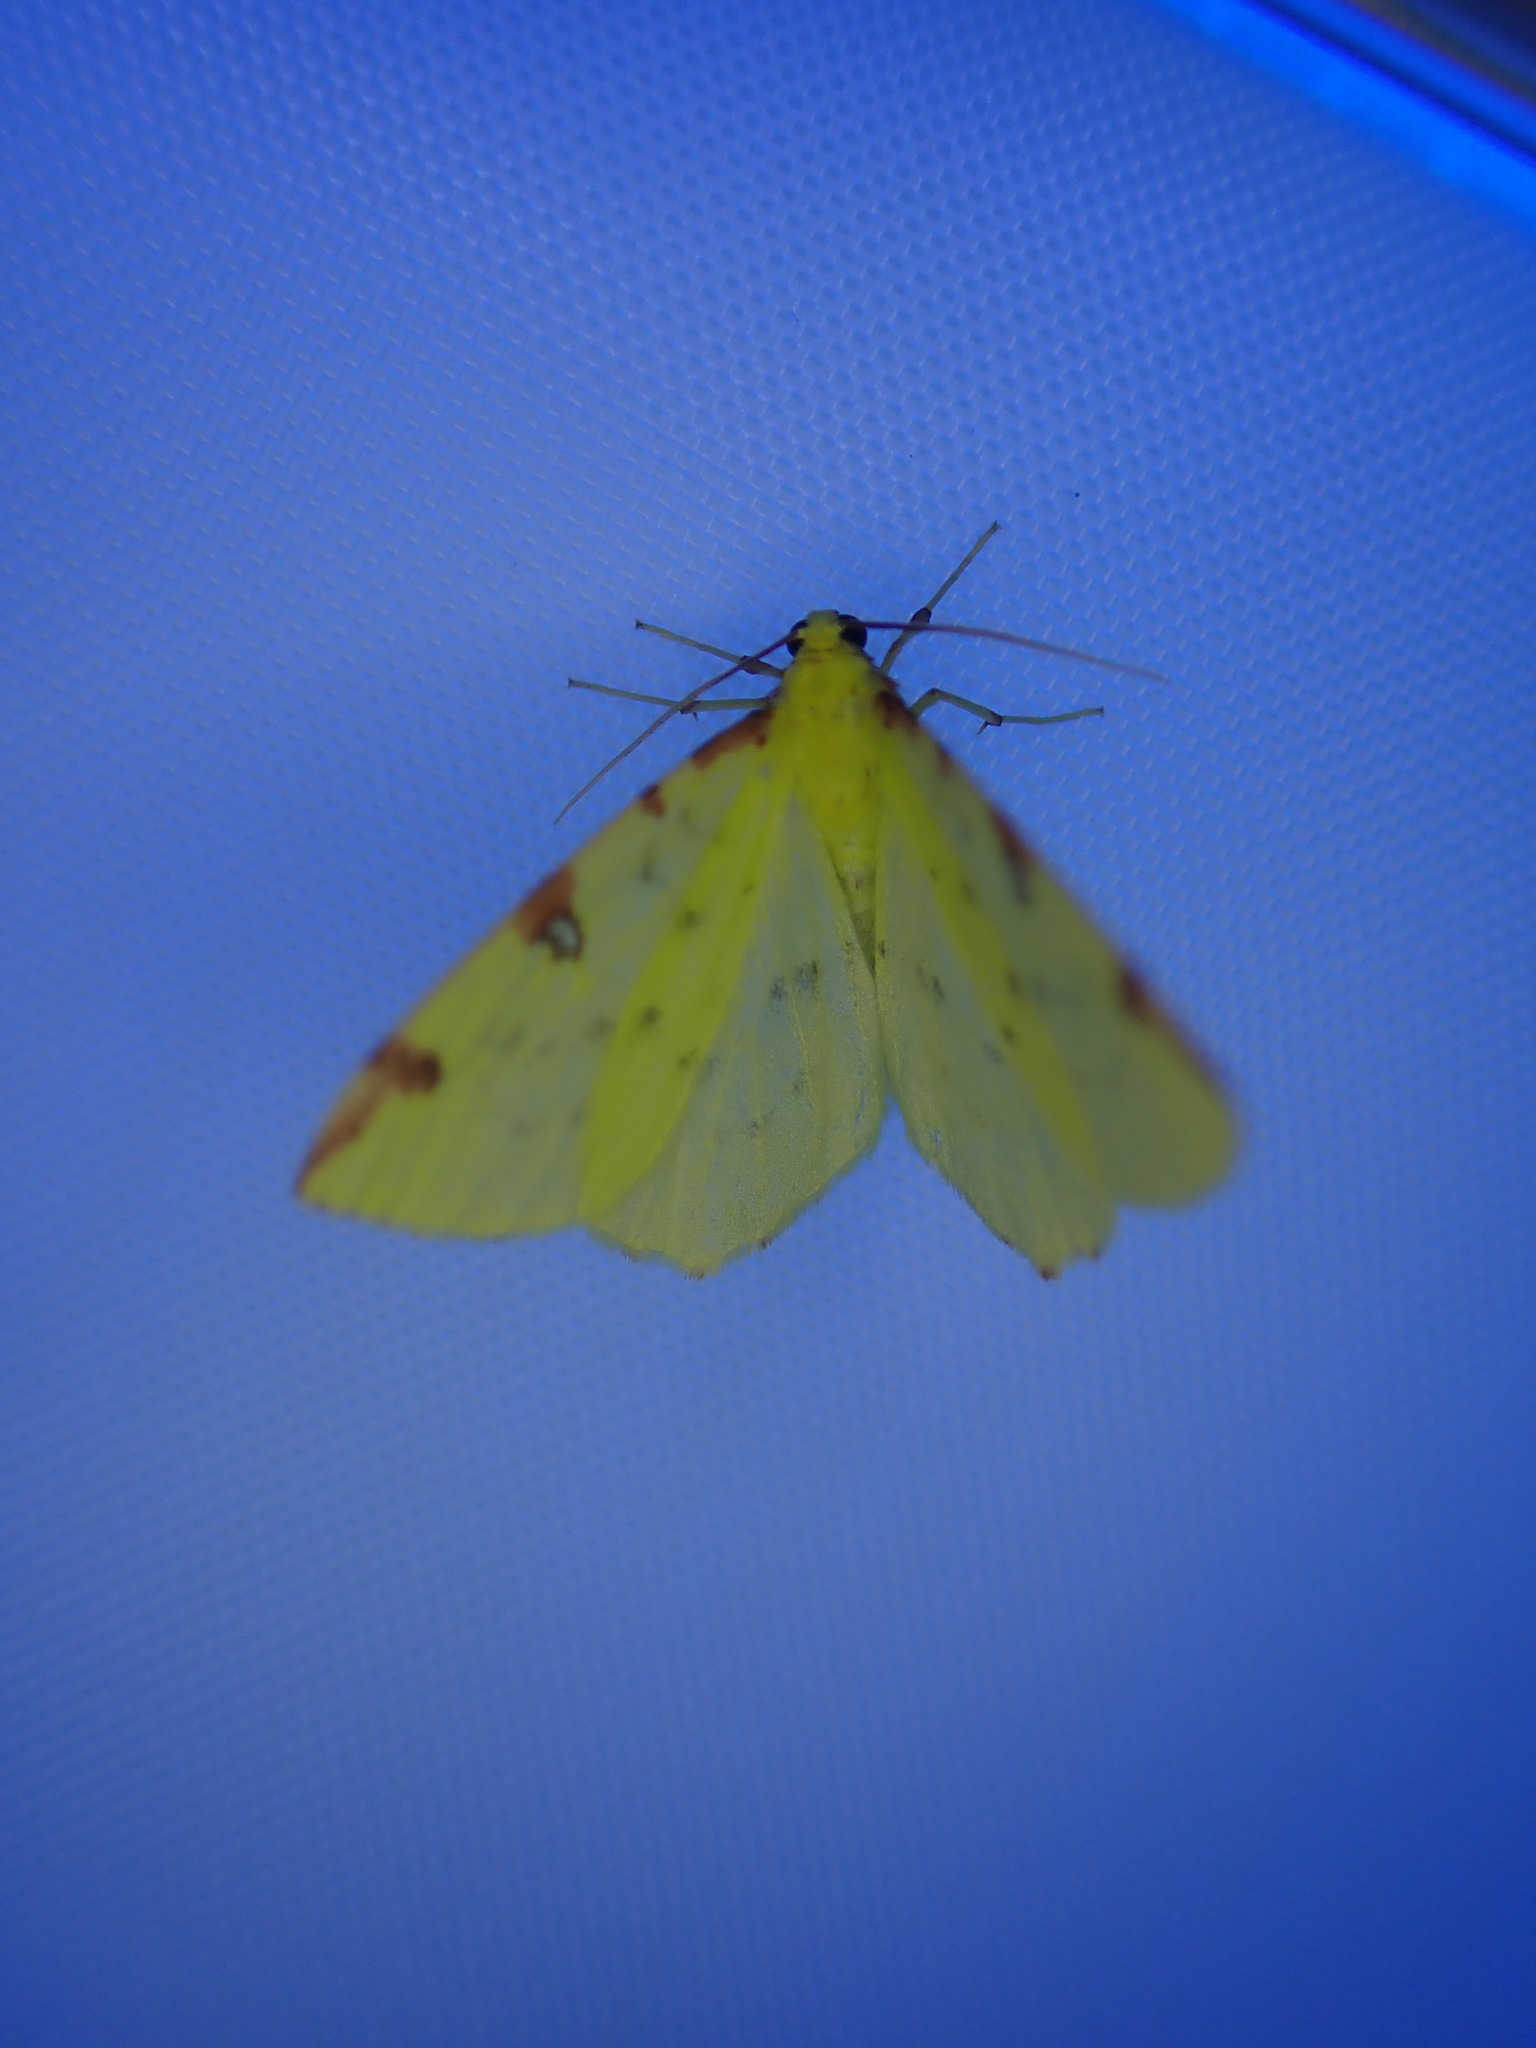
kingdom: Animalia
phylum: Arthropoda
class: Insecta
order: Lepidoptera
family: Geometridae
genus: Opisthograptis
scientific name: Opisthograptis luteolata
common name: Brimstone moth
